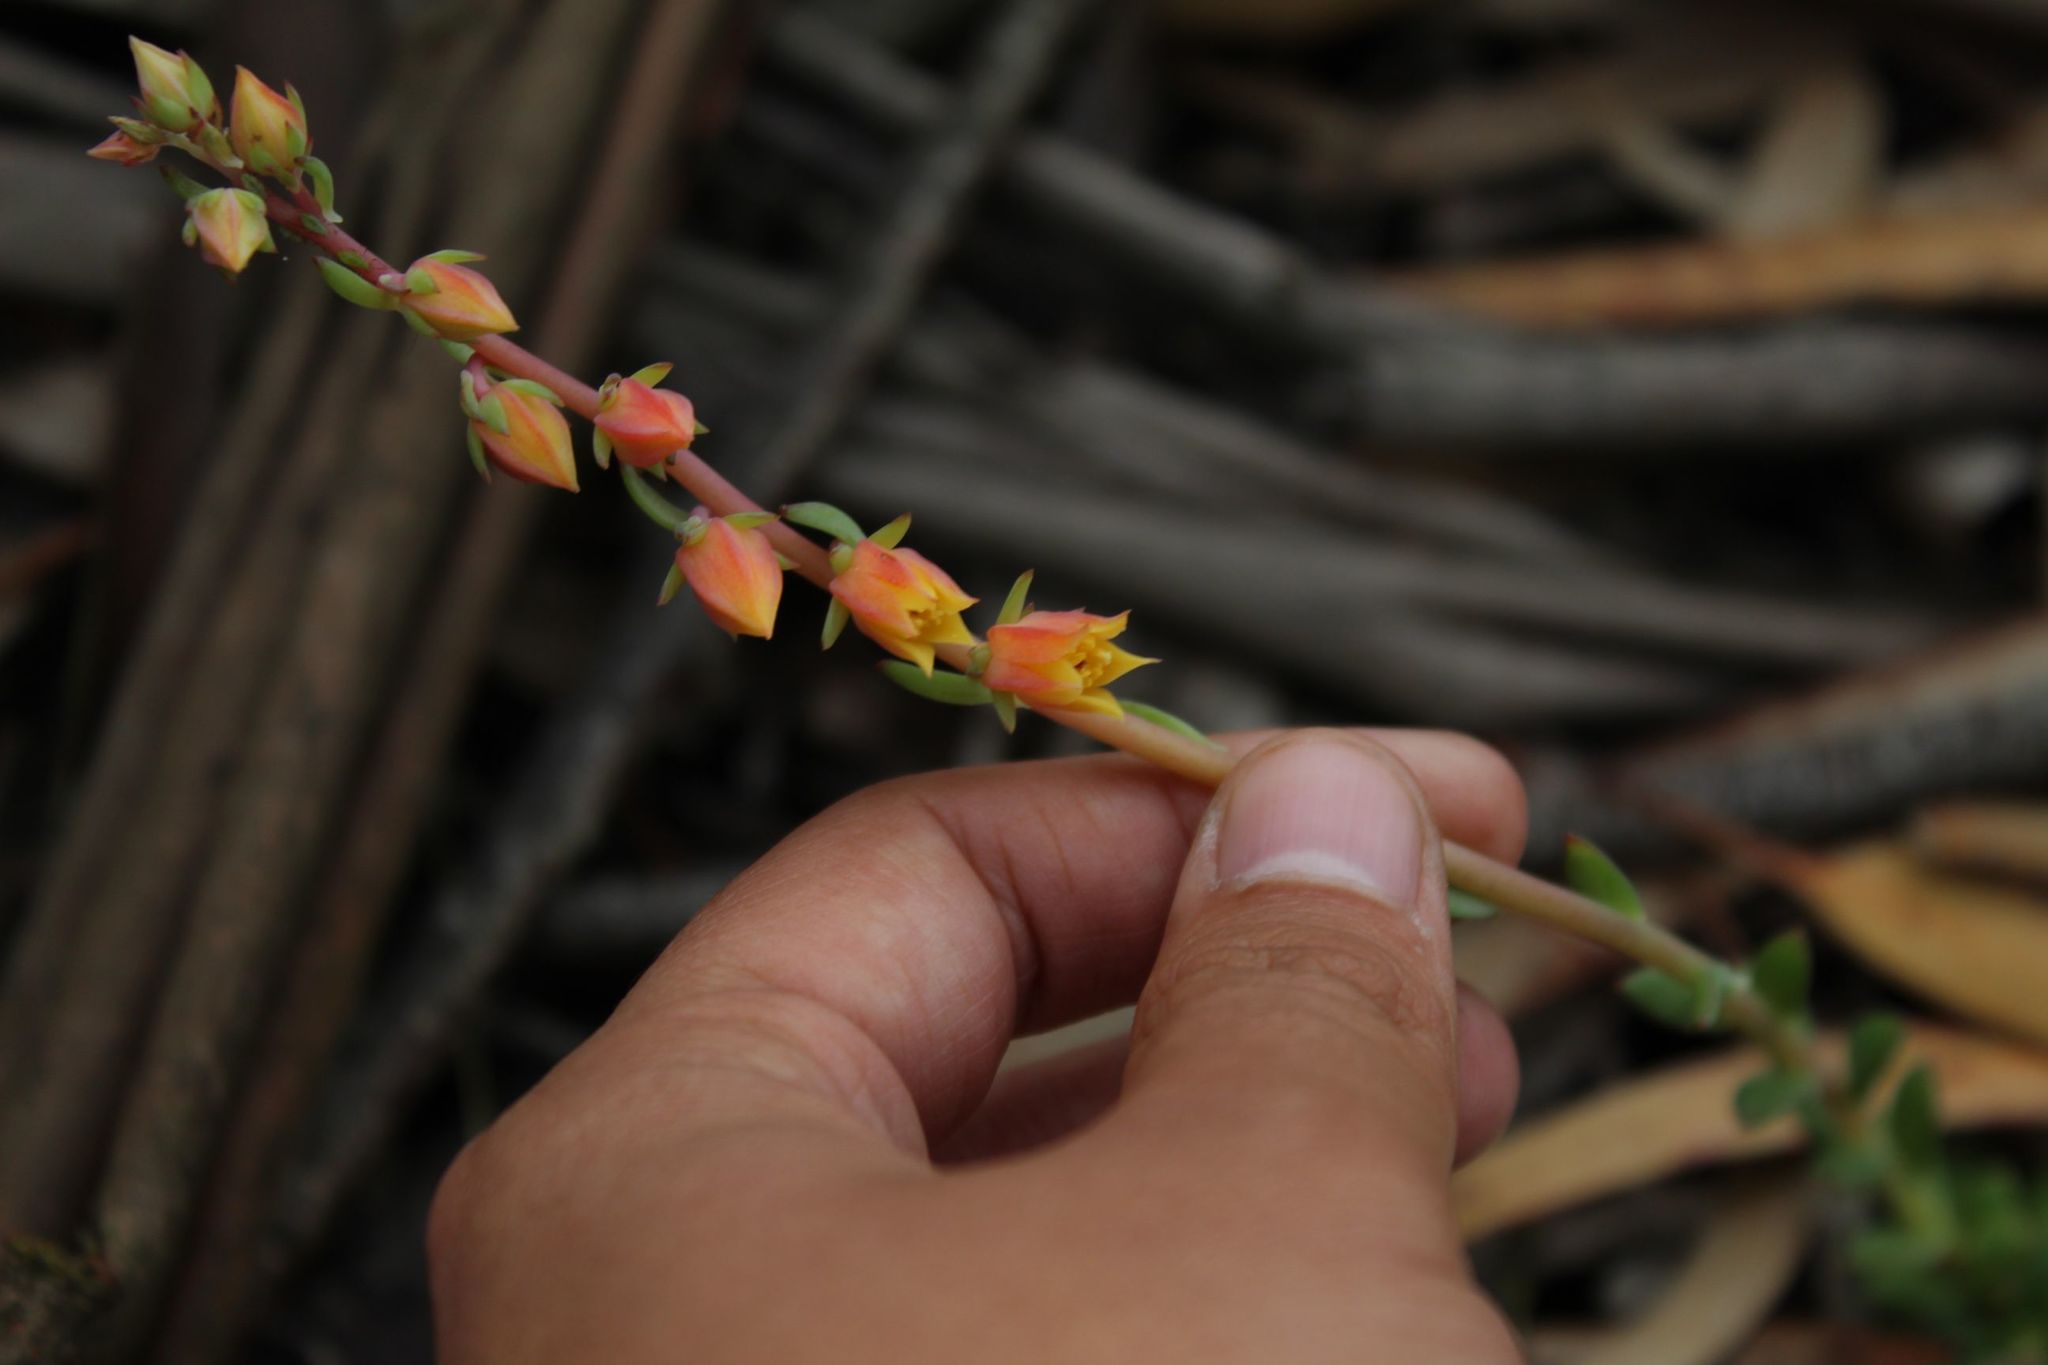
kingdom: Plantae
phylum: Tracheophyta
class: Magnoliopsida
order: Saxifragales
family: Crassulaceae
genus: Echeveria
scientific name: Echeveria bicolor
